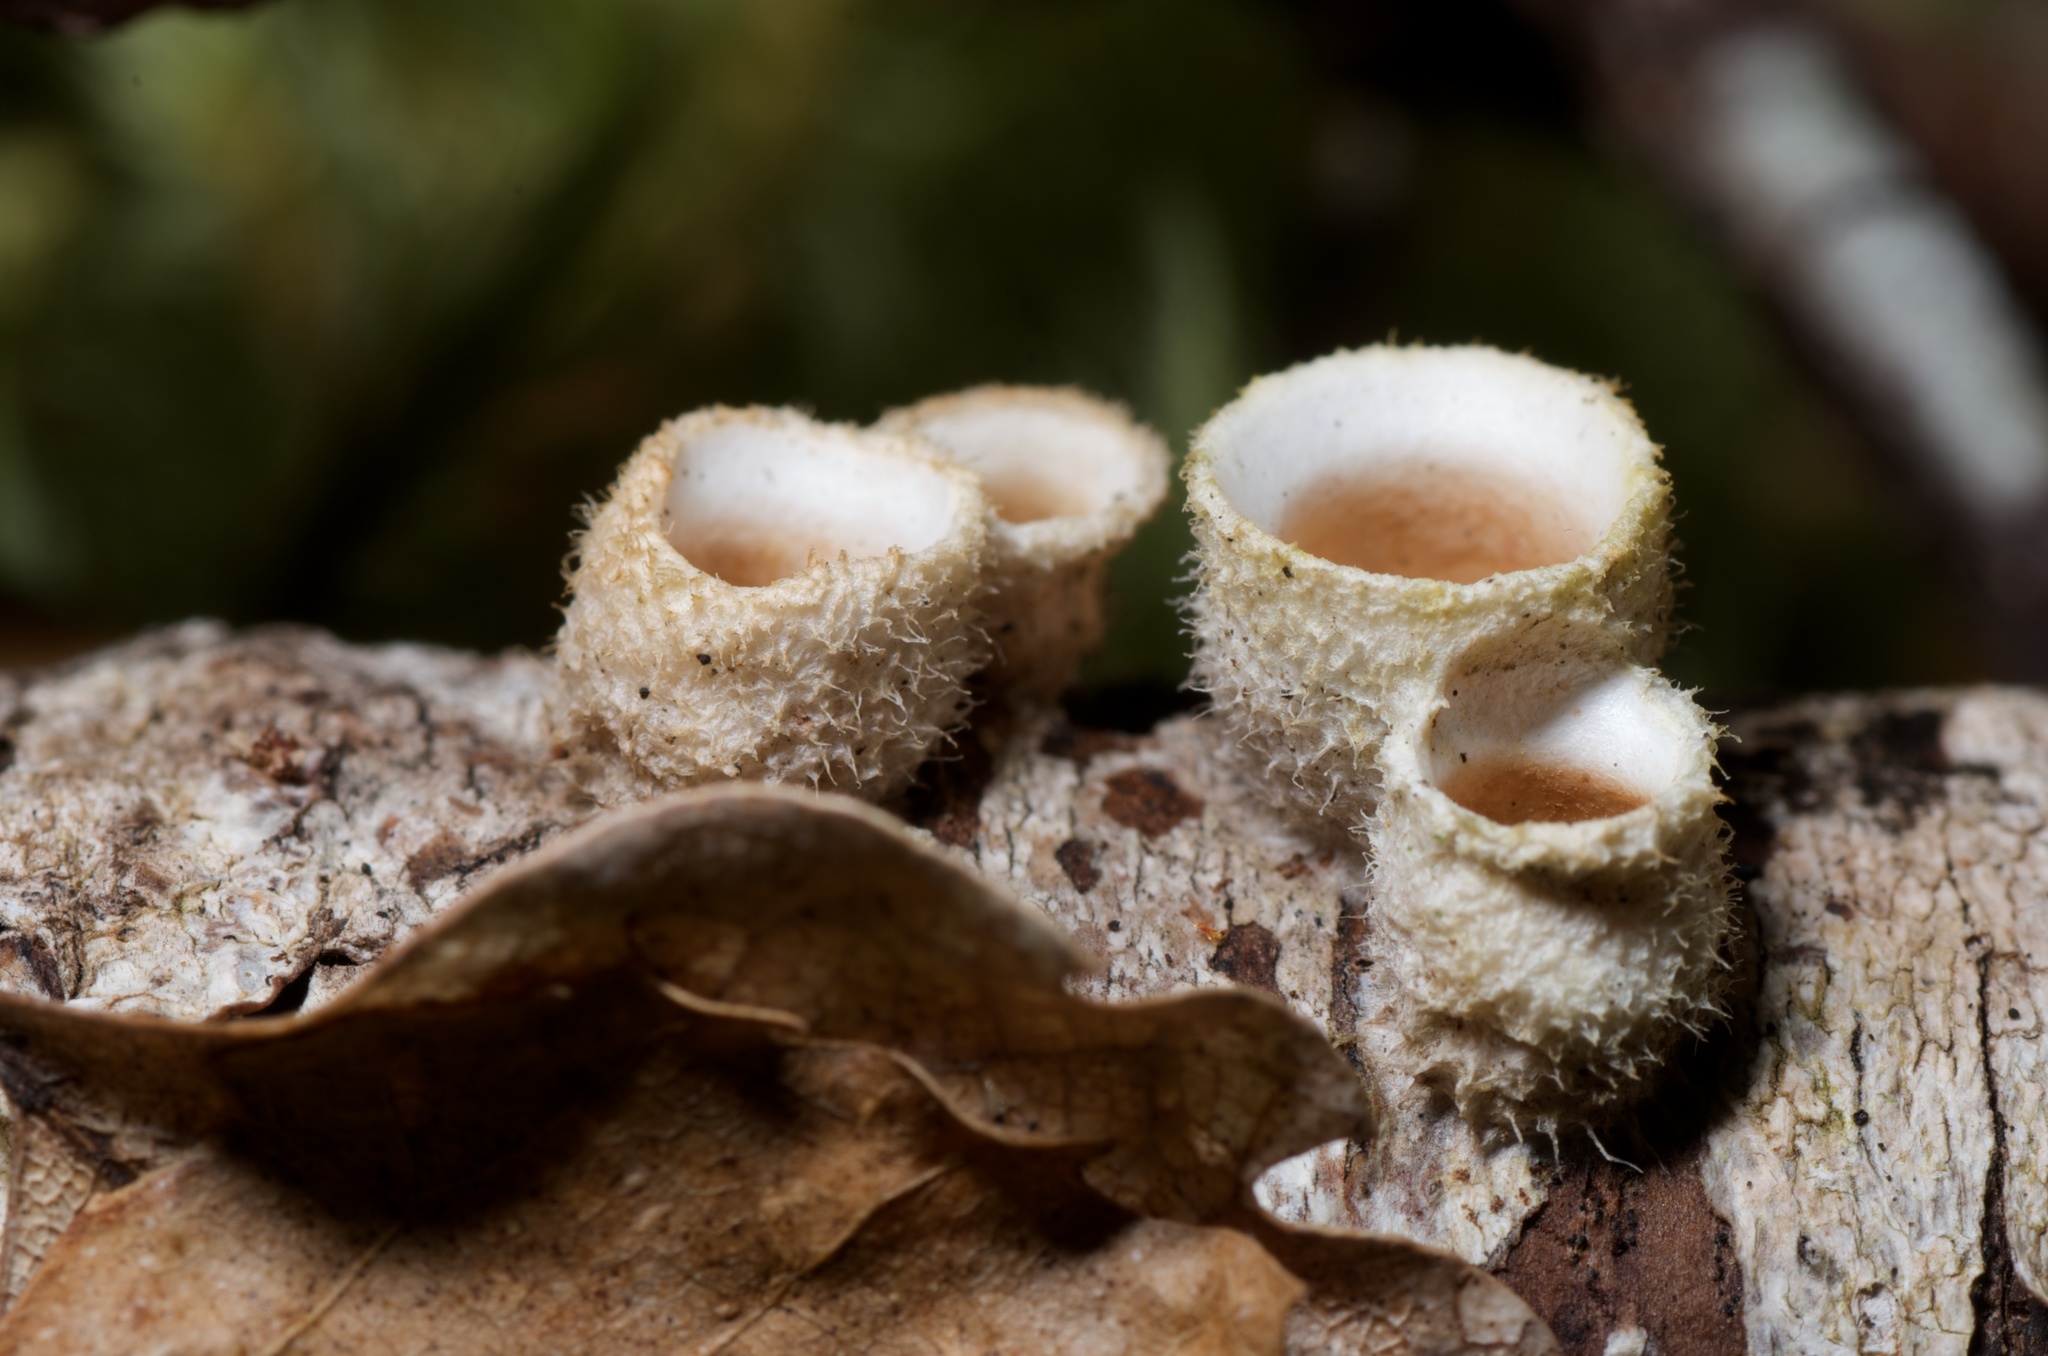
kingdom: Fungi
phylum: Basidiomycota
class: Agaricomycetes
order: Agaricales
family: Agaricaceae
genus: Nidula
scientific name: Nidula niveotomentosa
